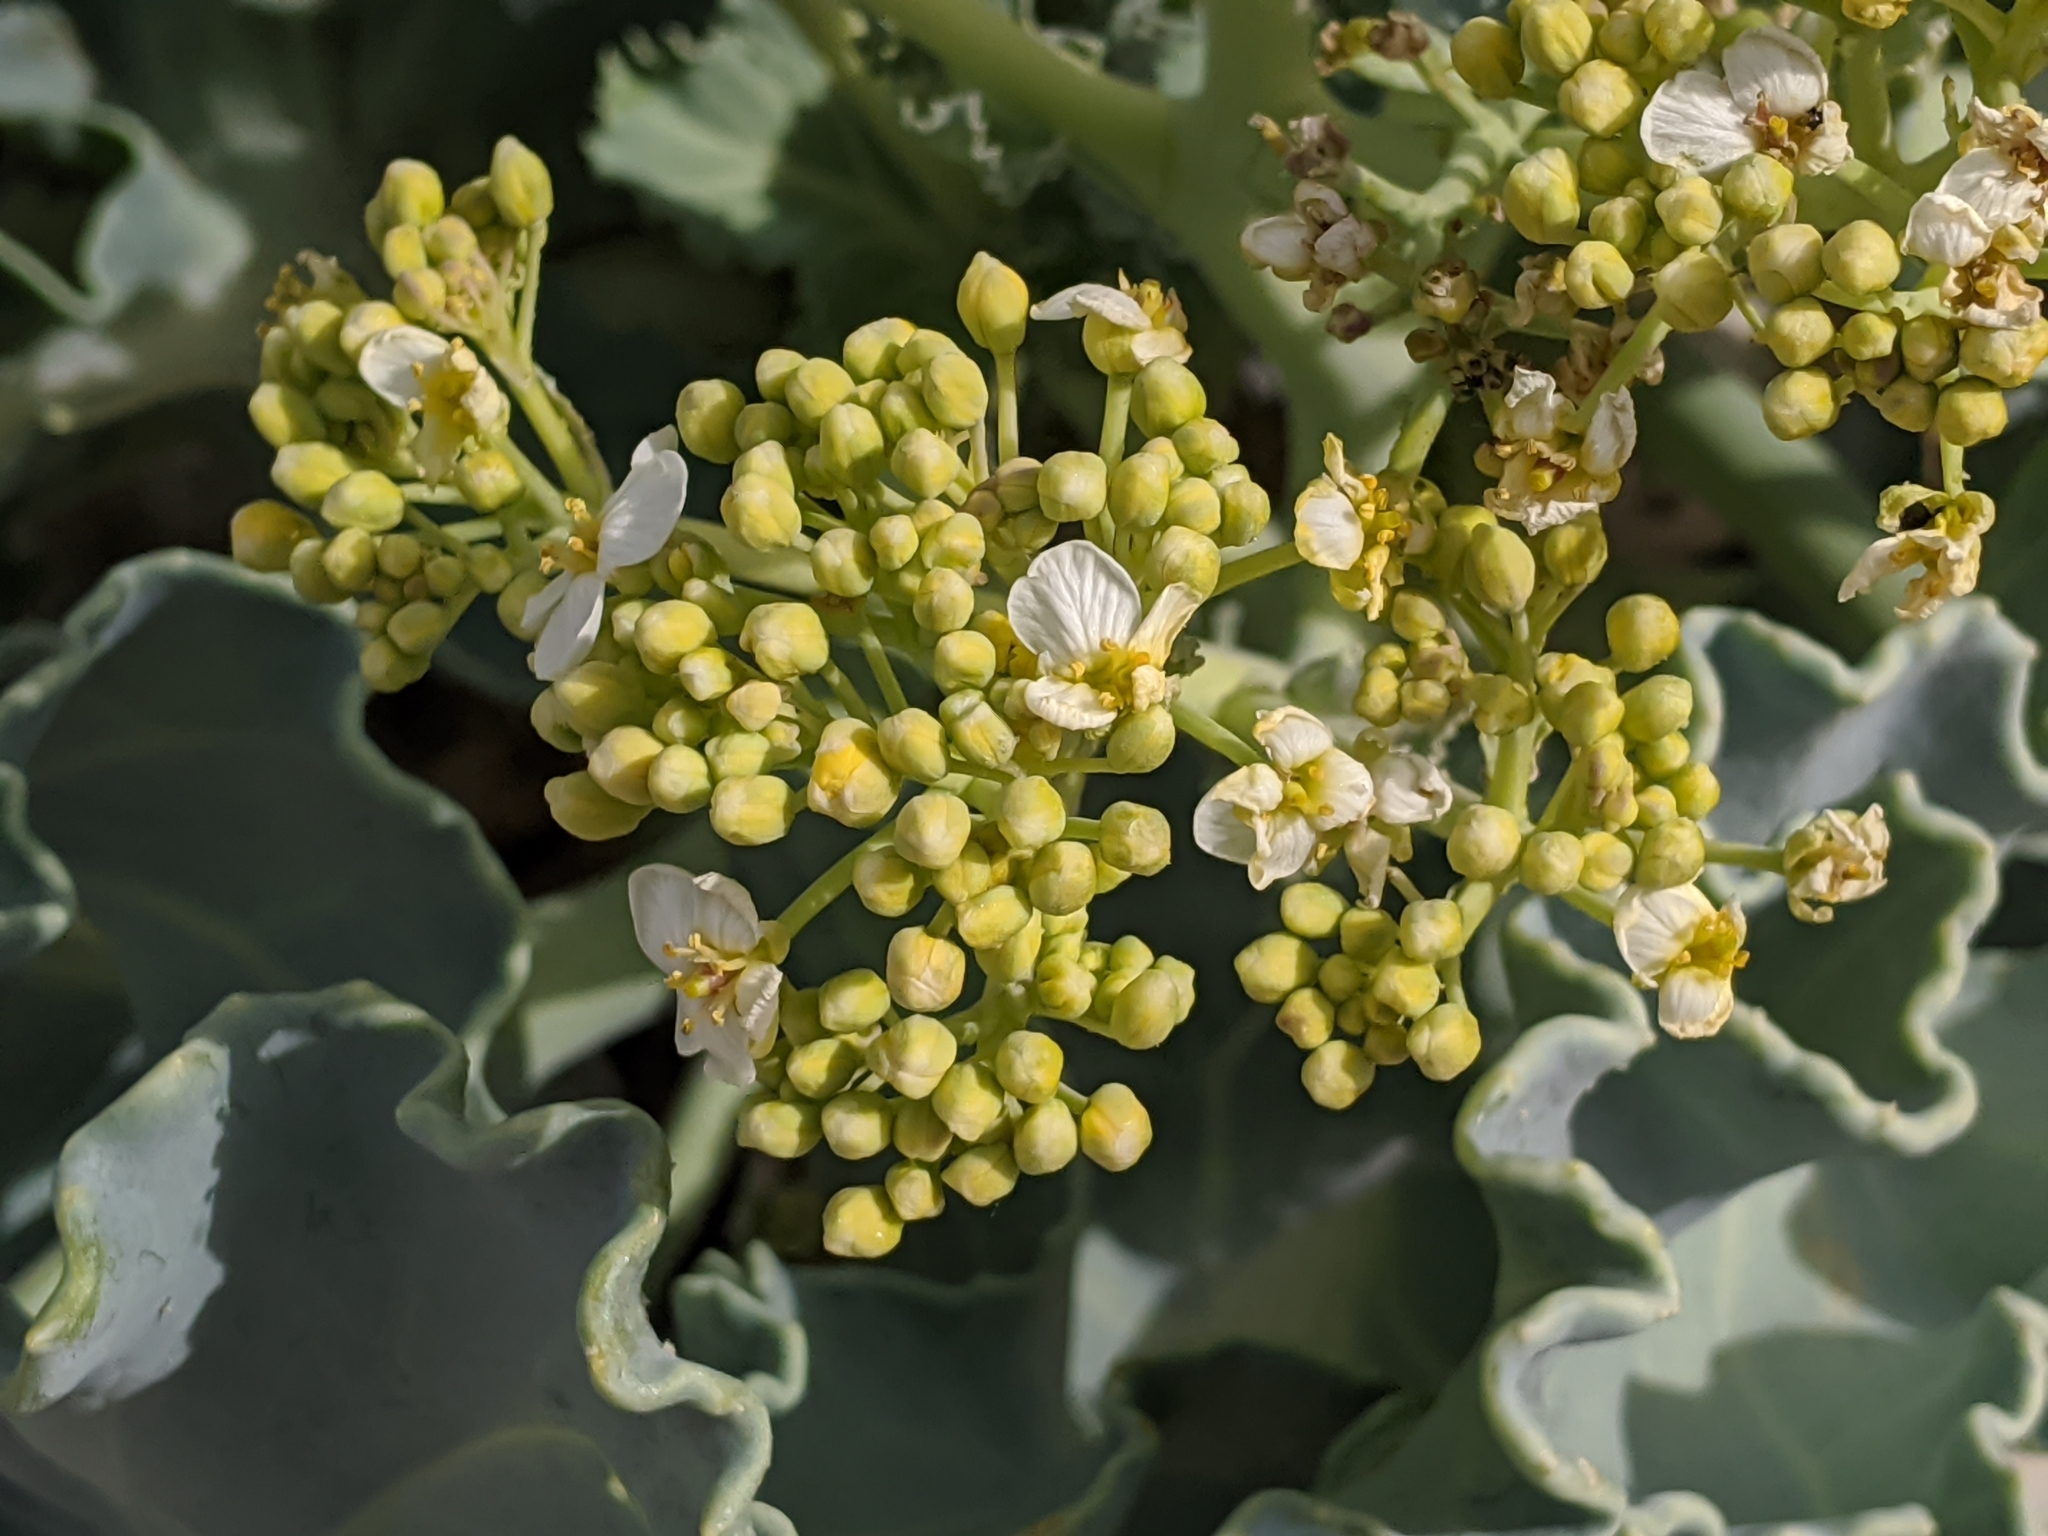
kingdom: Plantae
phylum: Tracheophyta
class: Magnoliopsida
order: Brassicales
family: Brassicaceae
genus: Crambe
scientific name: Crambe maritima
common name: Sea-kale
